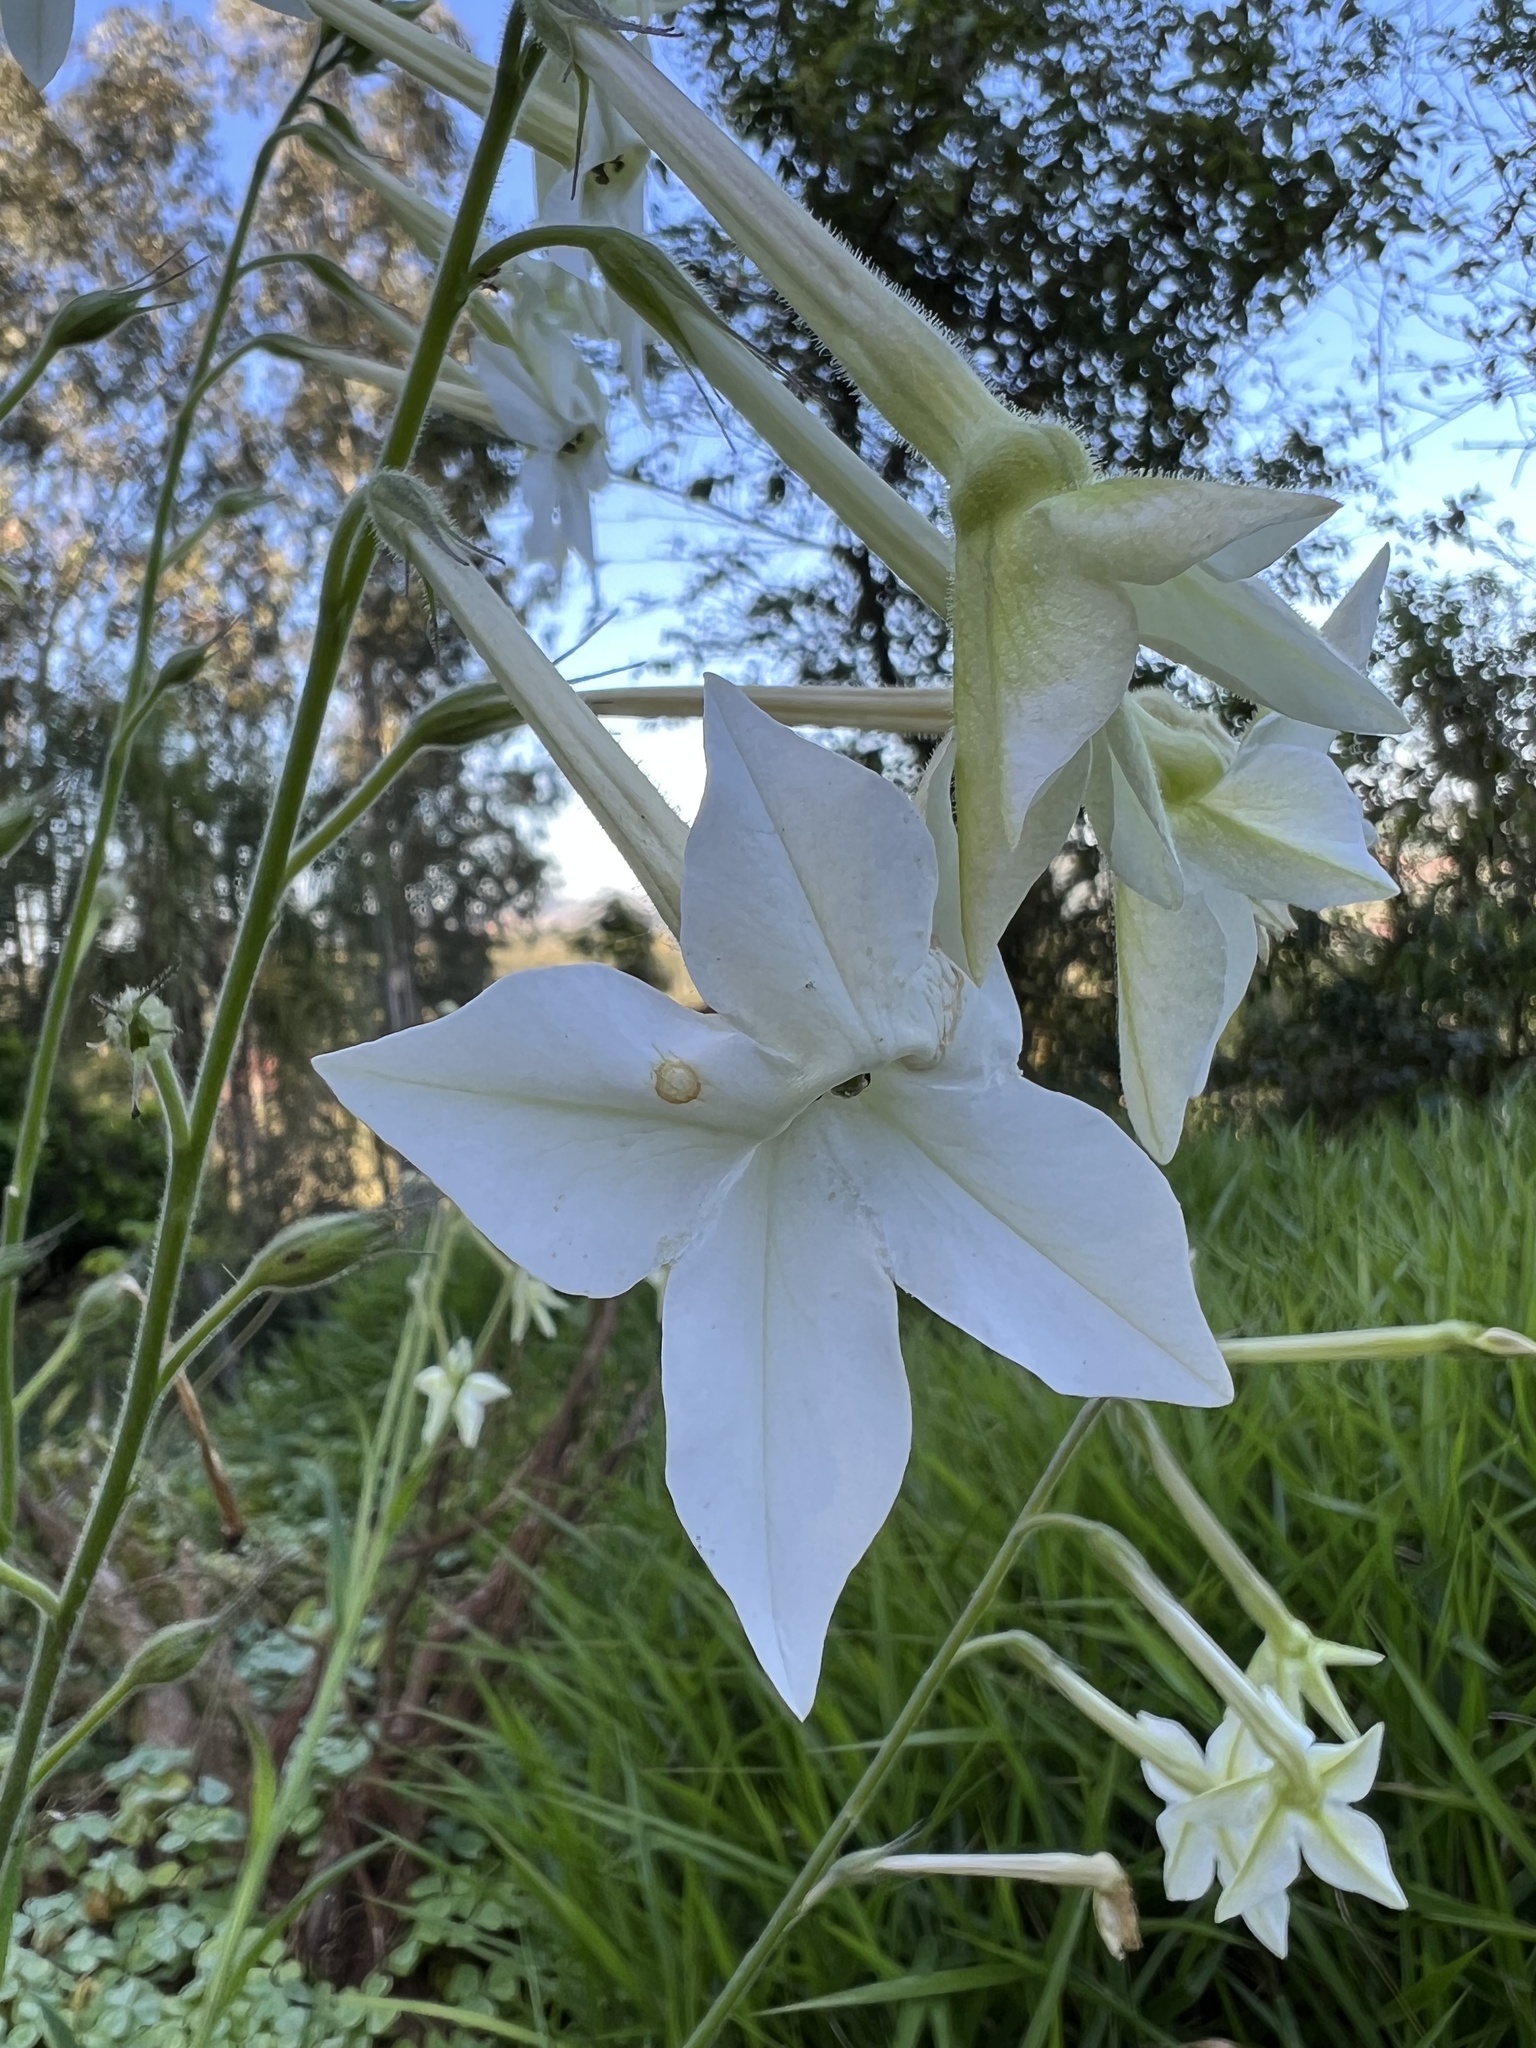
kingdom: Plantae
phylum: Tracheophyta
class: Magnoliopsida
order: Solanales
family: Solanaceae
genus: Nicotiana
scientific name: Nicotiana alata
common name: Jasmine tobacco
